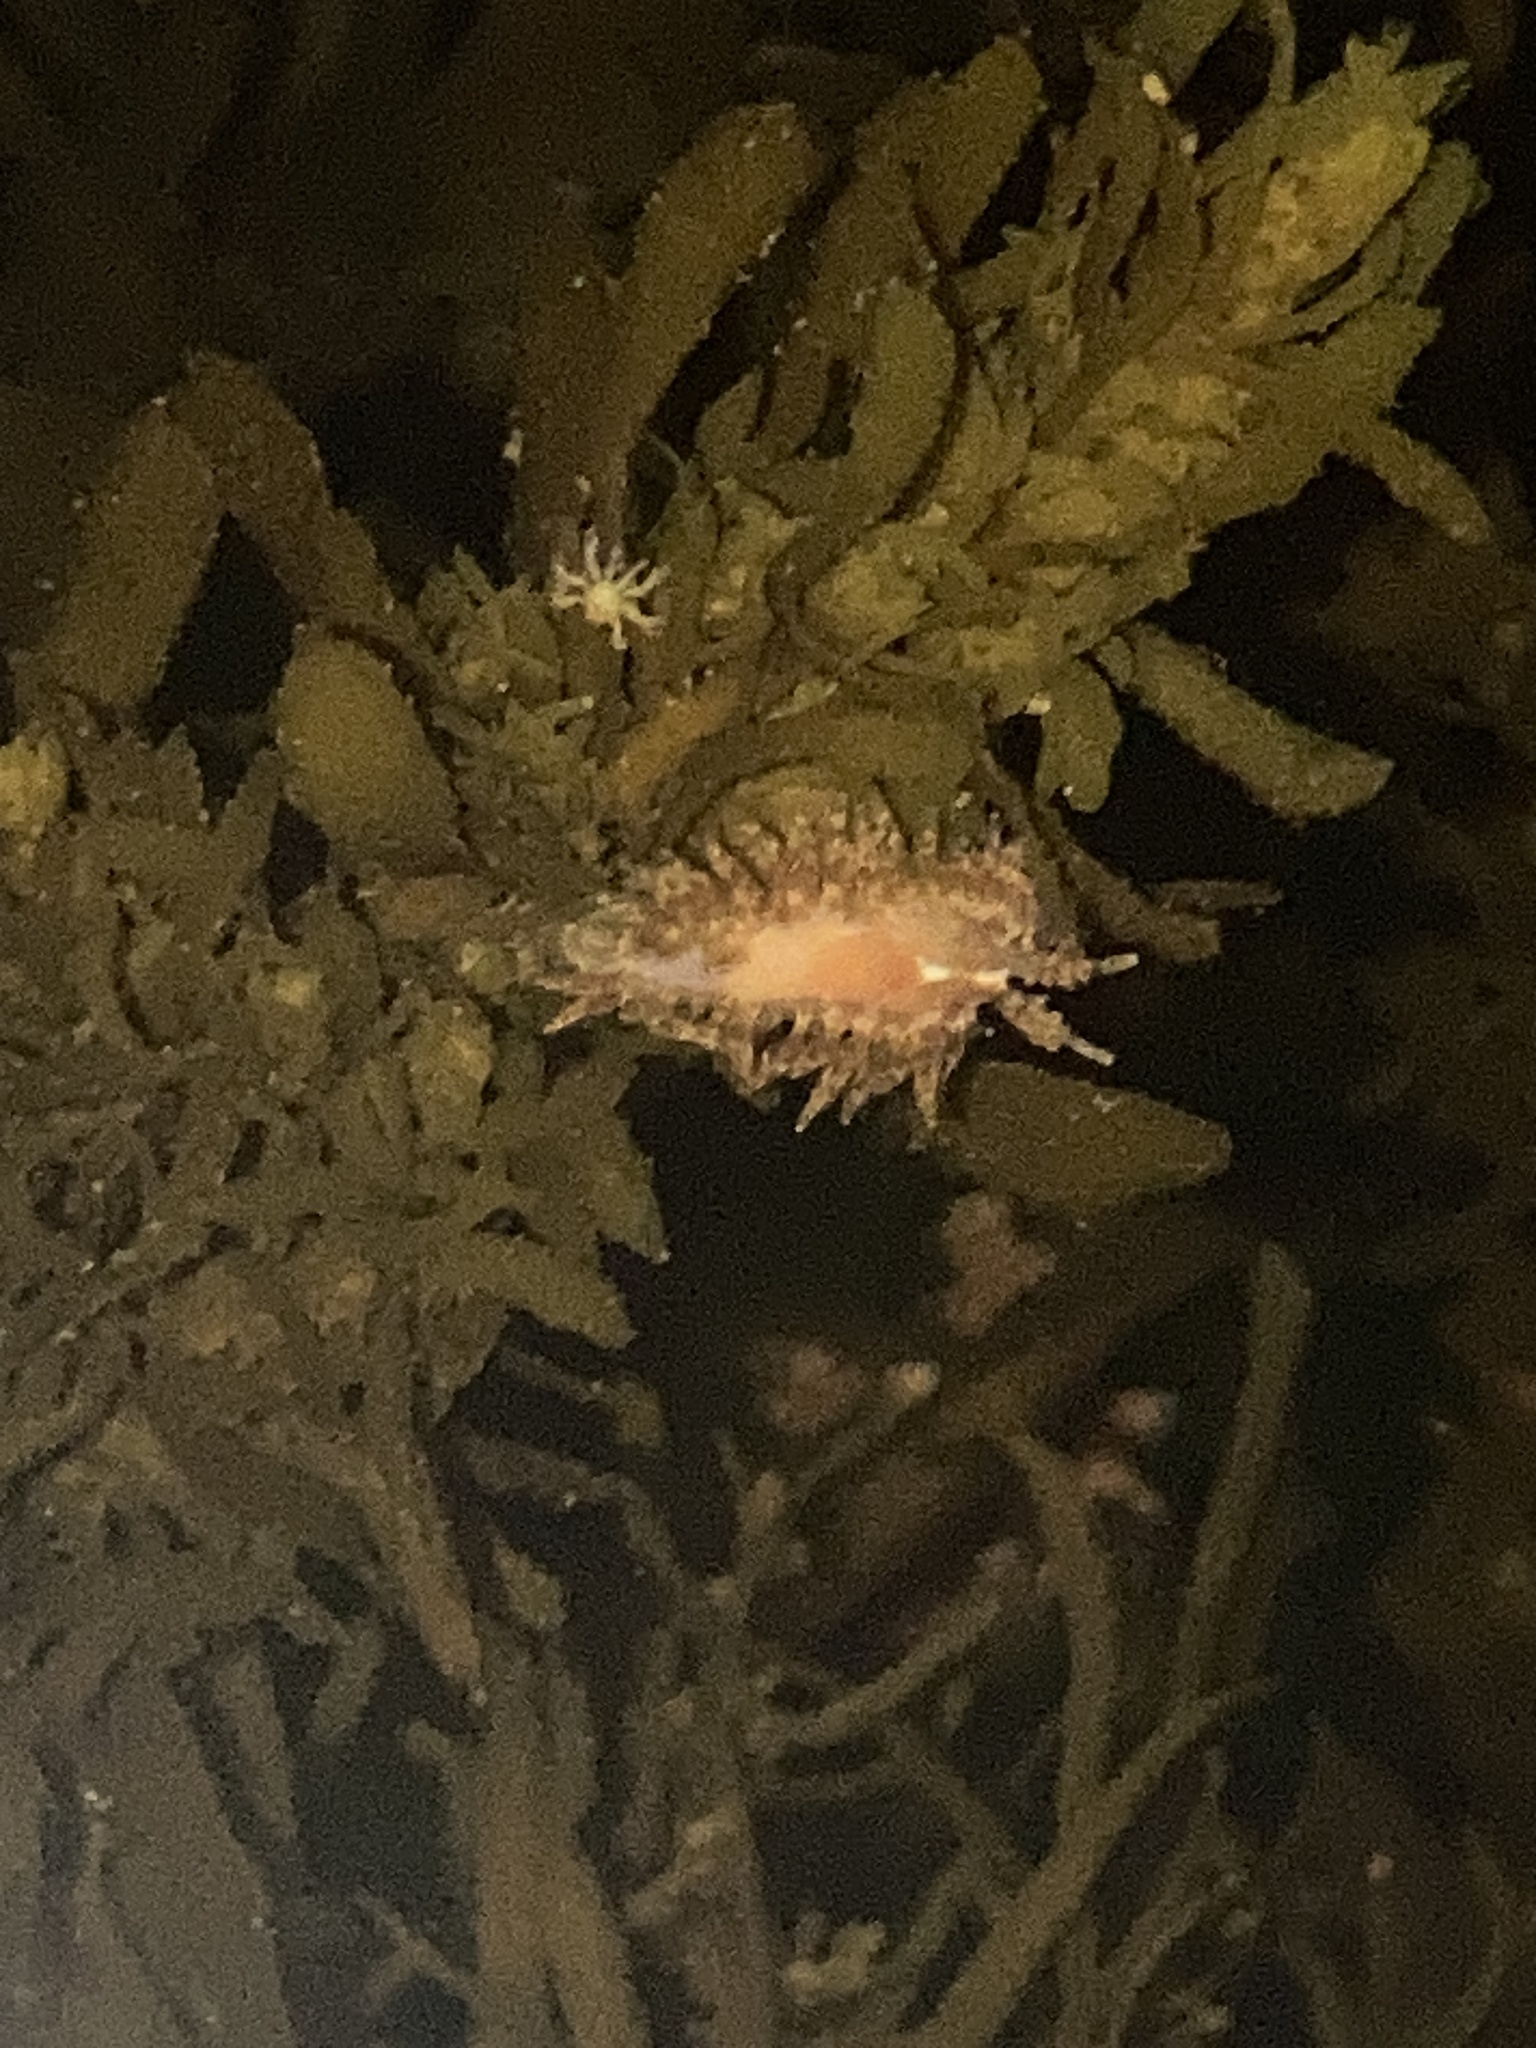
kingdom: Animalia
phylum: Mollusca
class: Gastropoda
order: Nudibranchia
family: Proctonotidae
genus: Caldukia
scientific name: Caldukia affinis
